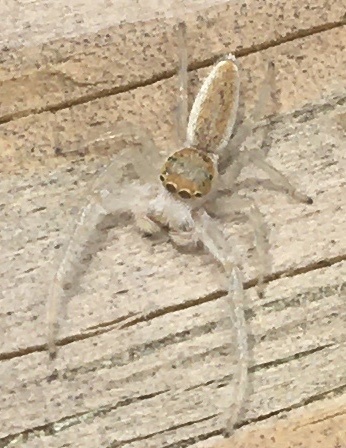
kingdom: Animalia
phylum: Arthropoda
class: Arachnida
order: Araneae
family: Salticidae
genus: Hentzia
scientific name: Hentzia mitrata
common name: White-jawed jumping spider
